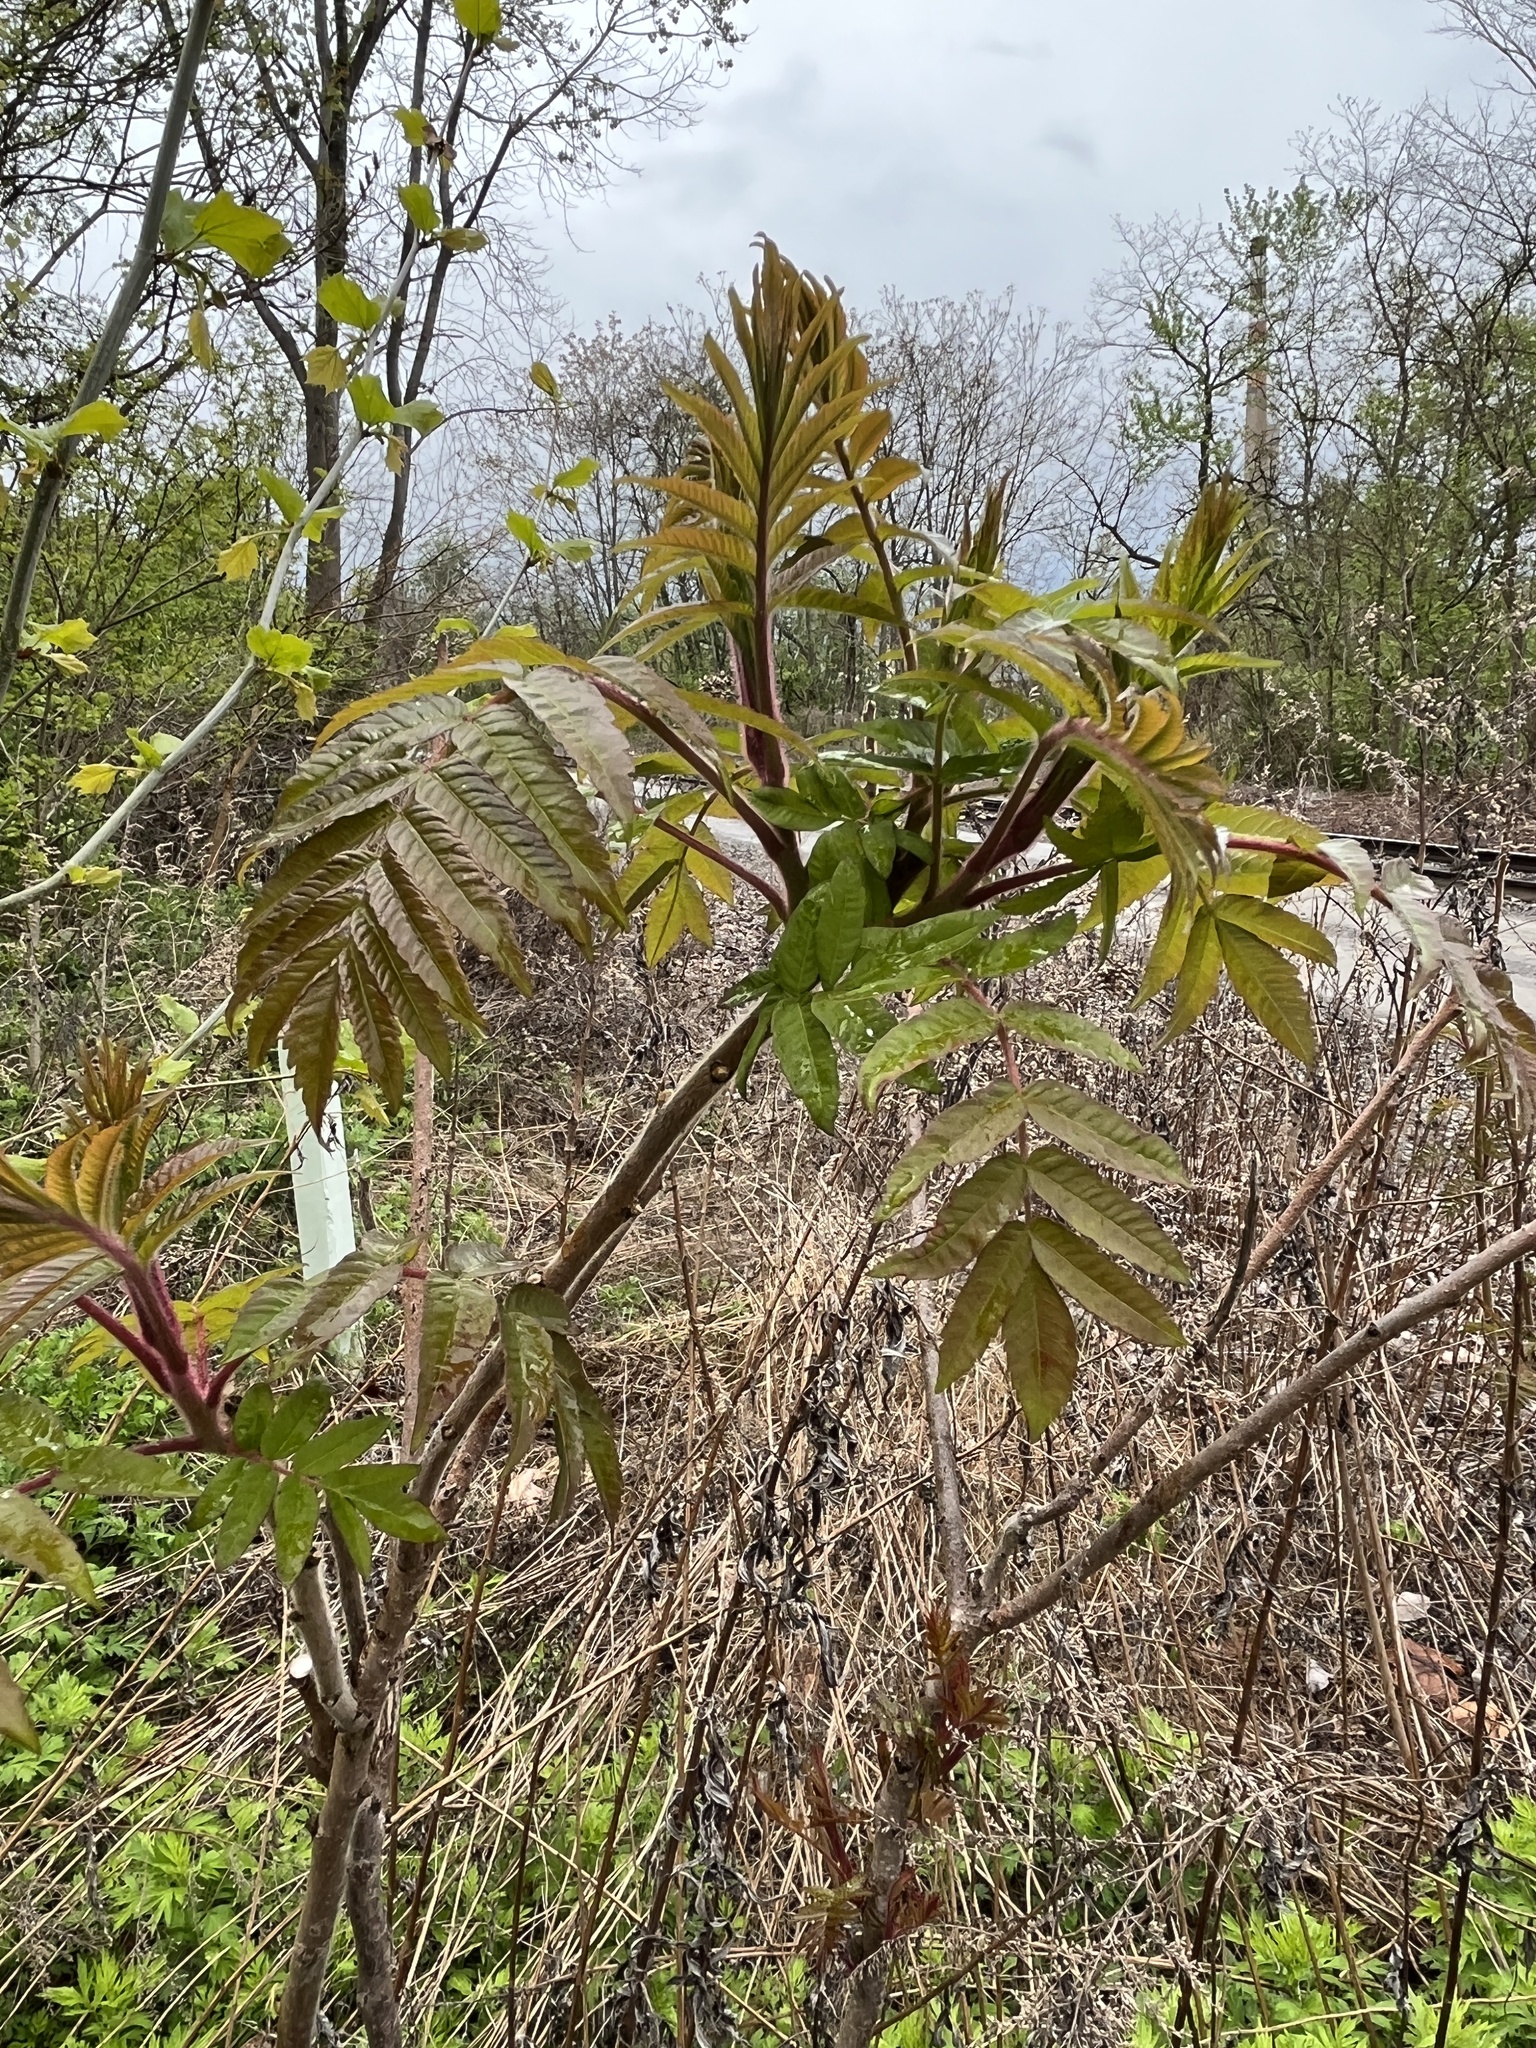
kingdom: Plantae
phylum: Tracheophyta
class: Magnoliopsida
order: Sapindales
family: Anacardiaceae
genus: Rhus
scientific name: Rhus typhina
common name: Staghorn sumac
